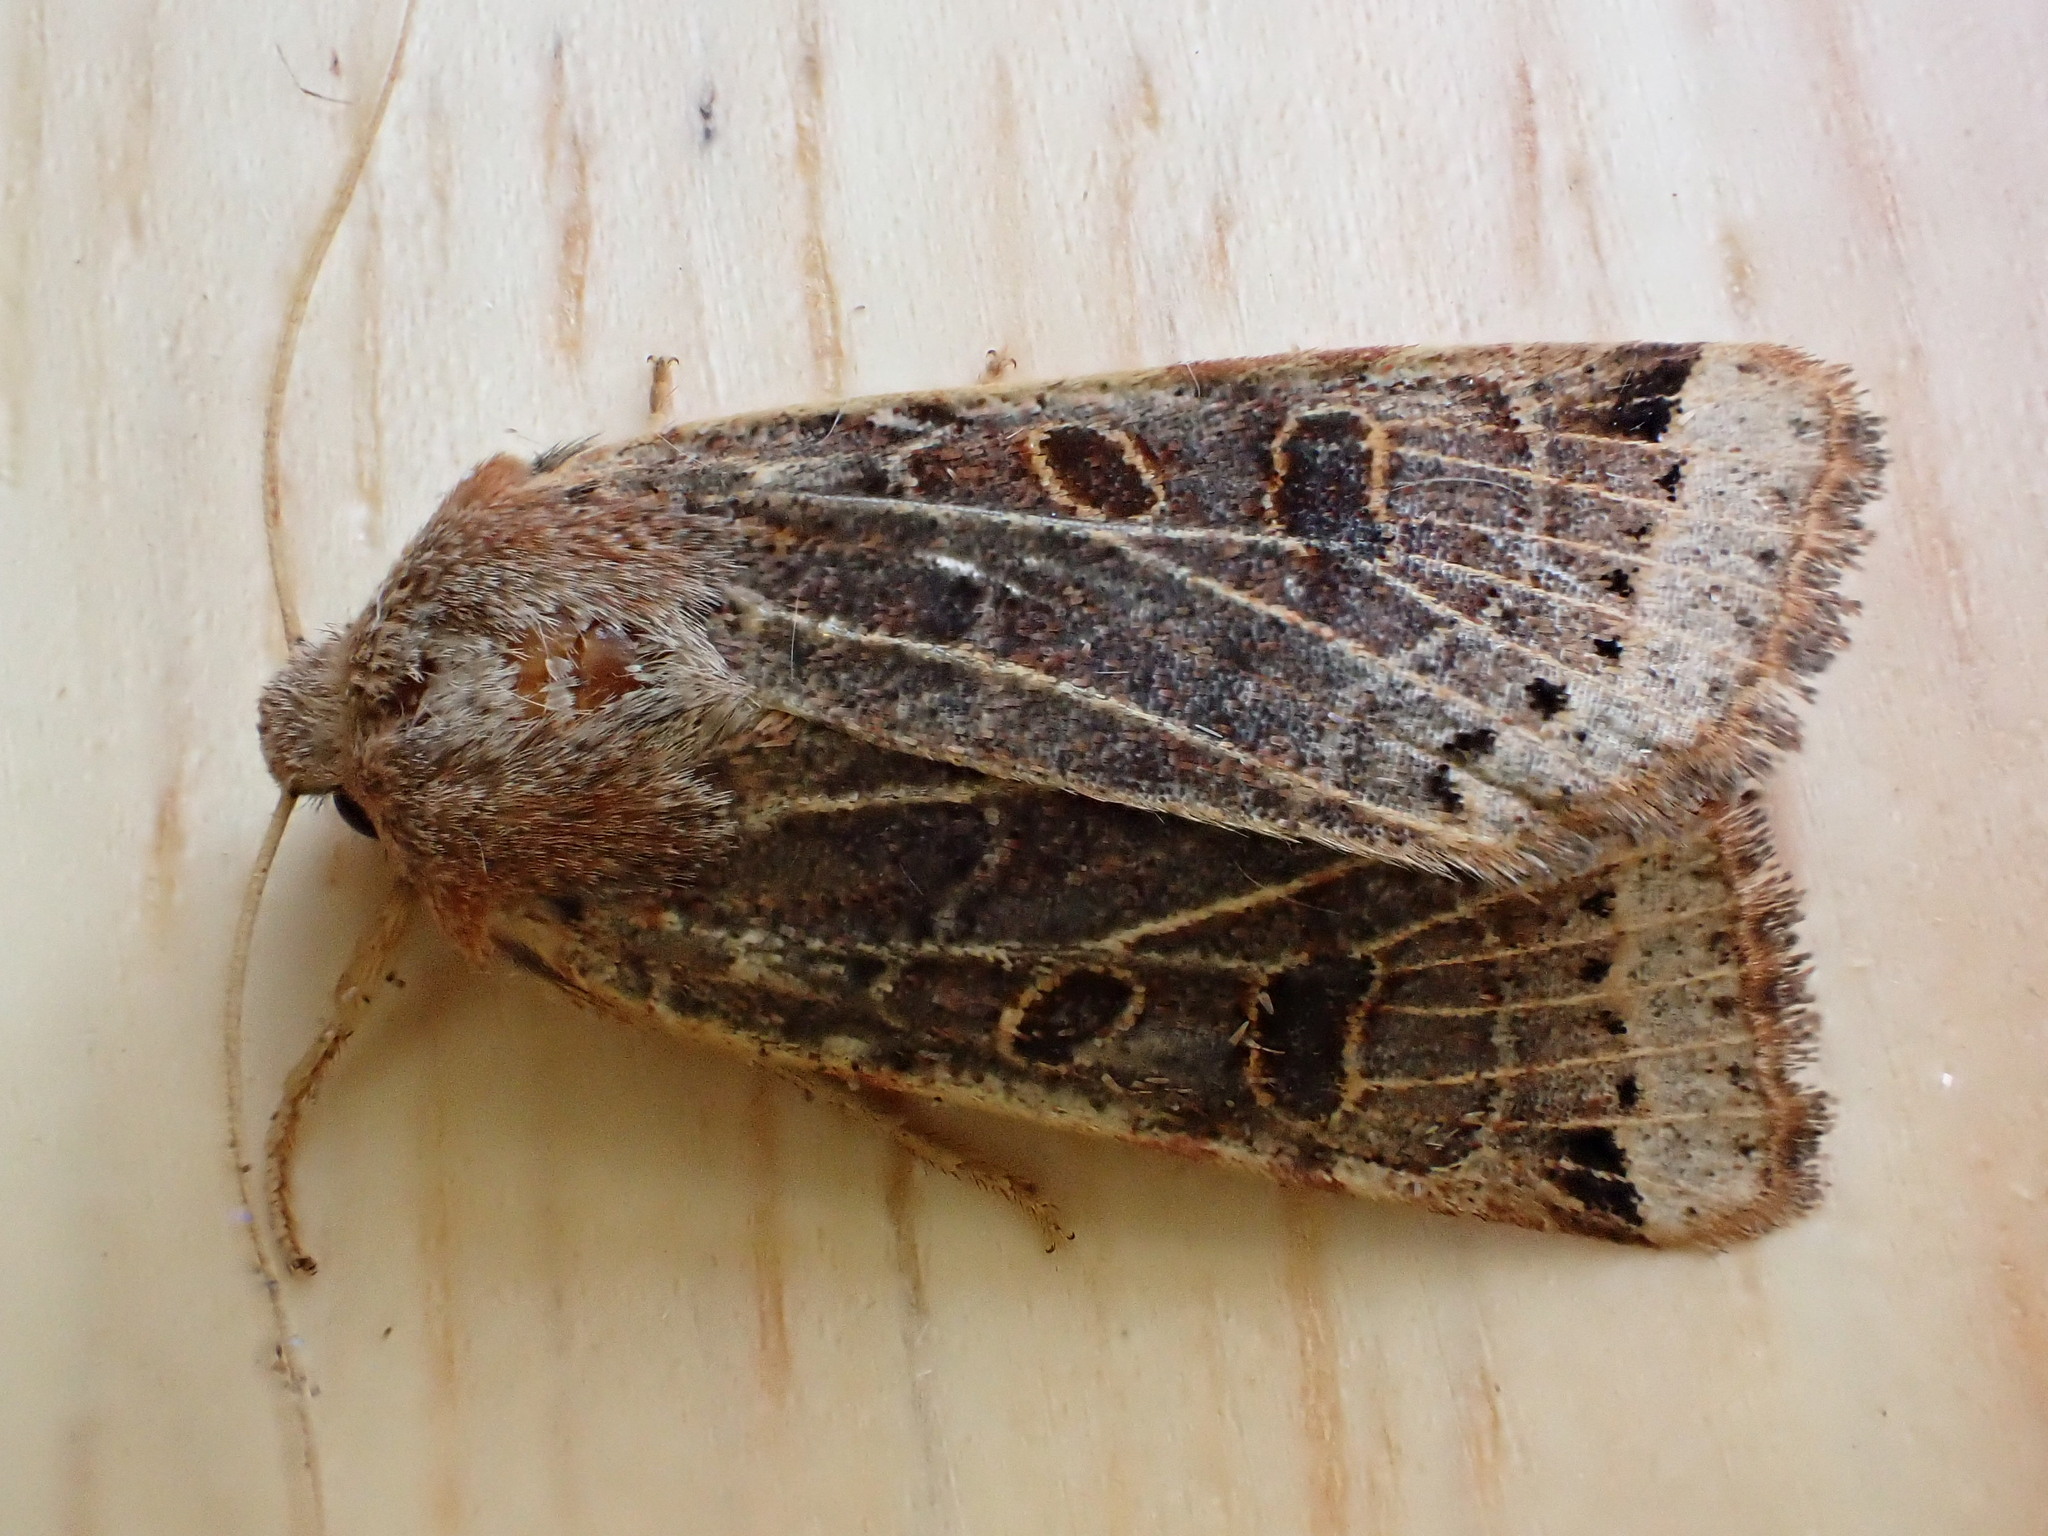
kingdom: Animalia
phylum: Arthropoda
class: Insecta
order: Lepidoptera
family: Noctuidae
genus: Agrochola
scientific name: Agrochola lunosa
